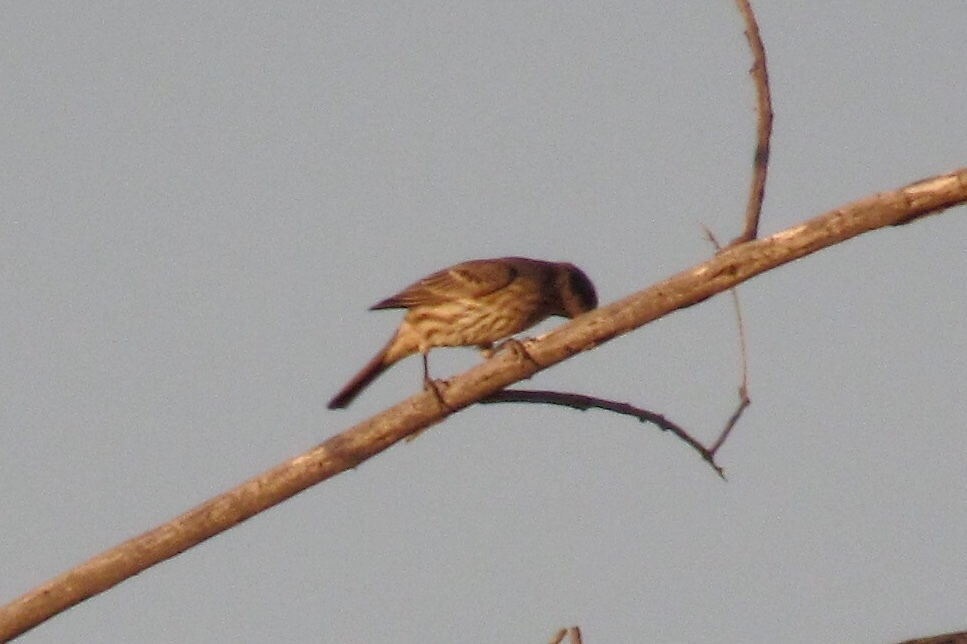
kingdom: Animalia
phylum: Chordata
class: Aves
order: Passeriformes
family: Fringillidae
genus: Haemorhous
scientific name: Haemorhous mexicanus
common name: House finch
